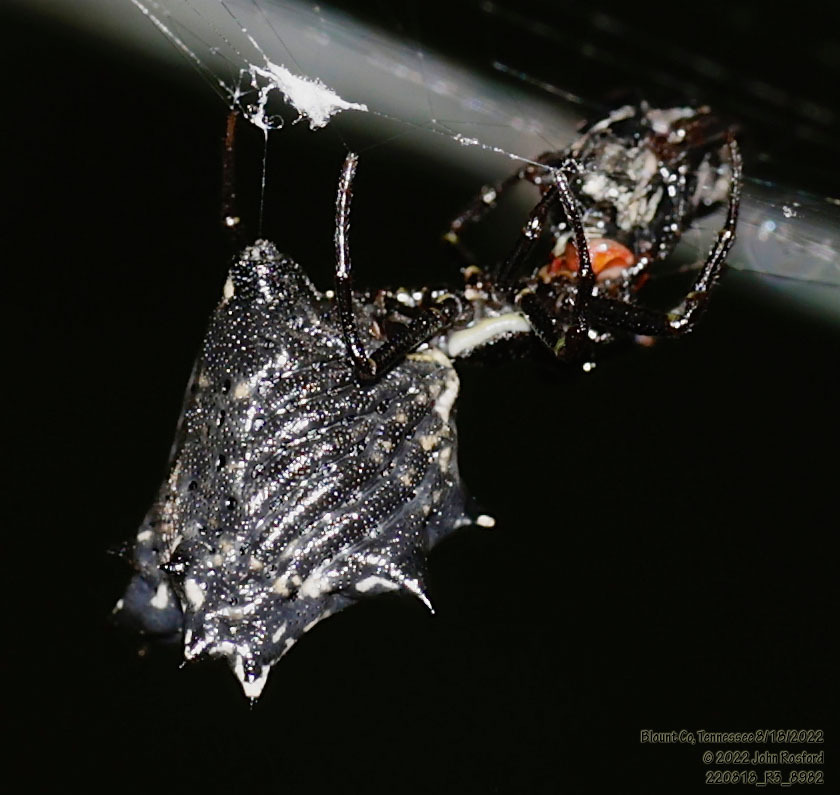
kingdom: Animalia
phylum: Arthropoda
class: Arachnida
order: Araneae
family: Araneidae
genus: Micrathena
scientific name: Micrathena gracilis
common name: Orb weavers
